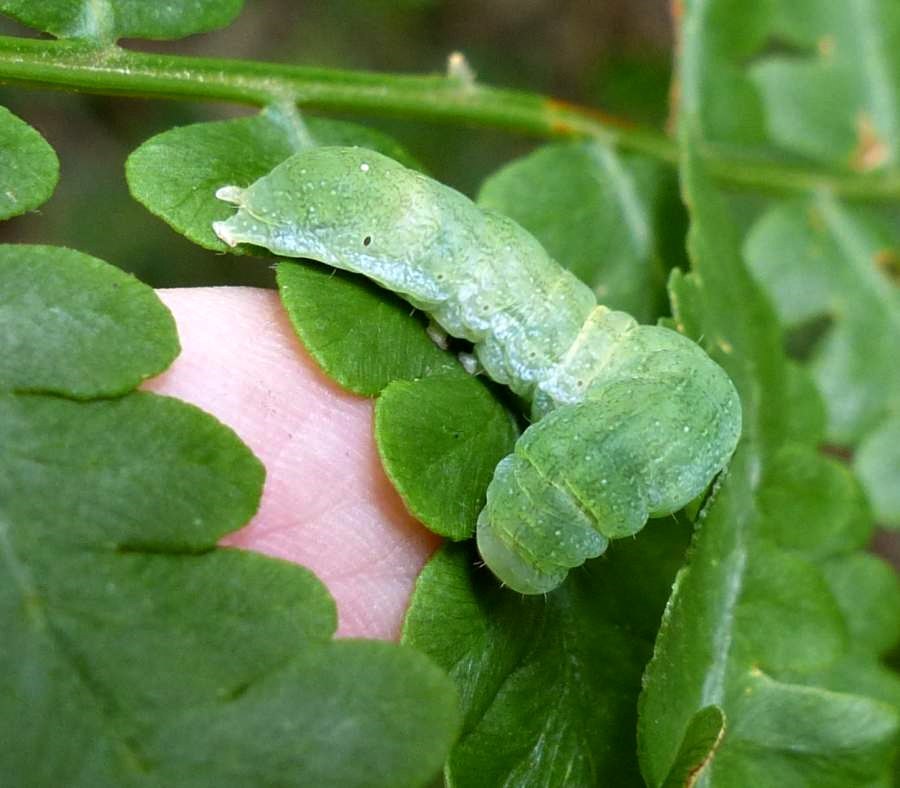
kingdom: Animalia
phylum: Arthropoda
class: Insecta
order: Lepidoptera
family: Noctuidae
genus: Euplexia
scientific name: Euplexia benesimilis
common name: American angle shades
